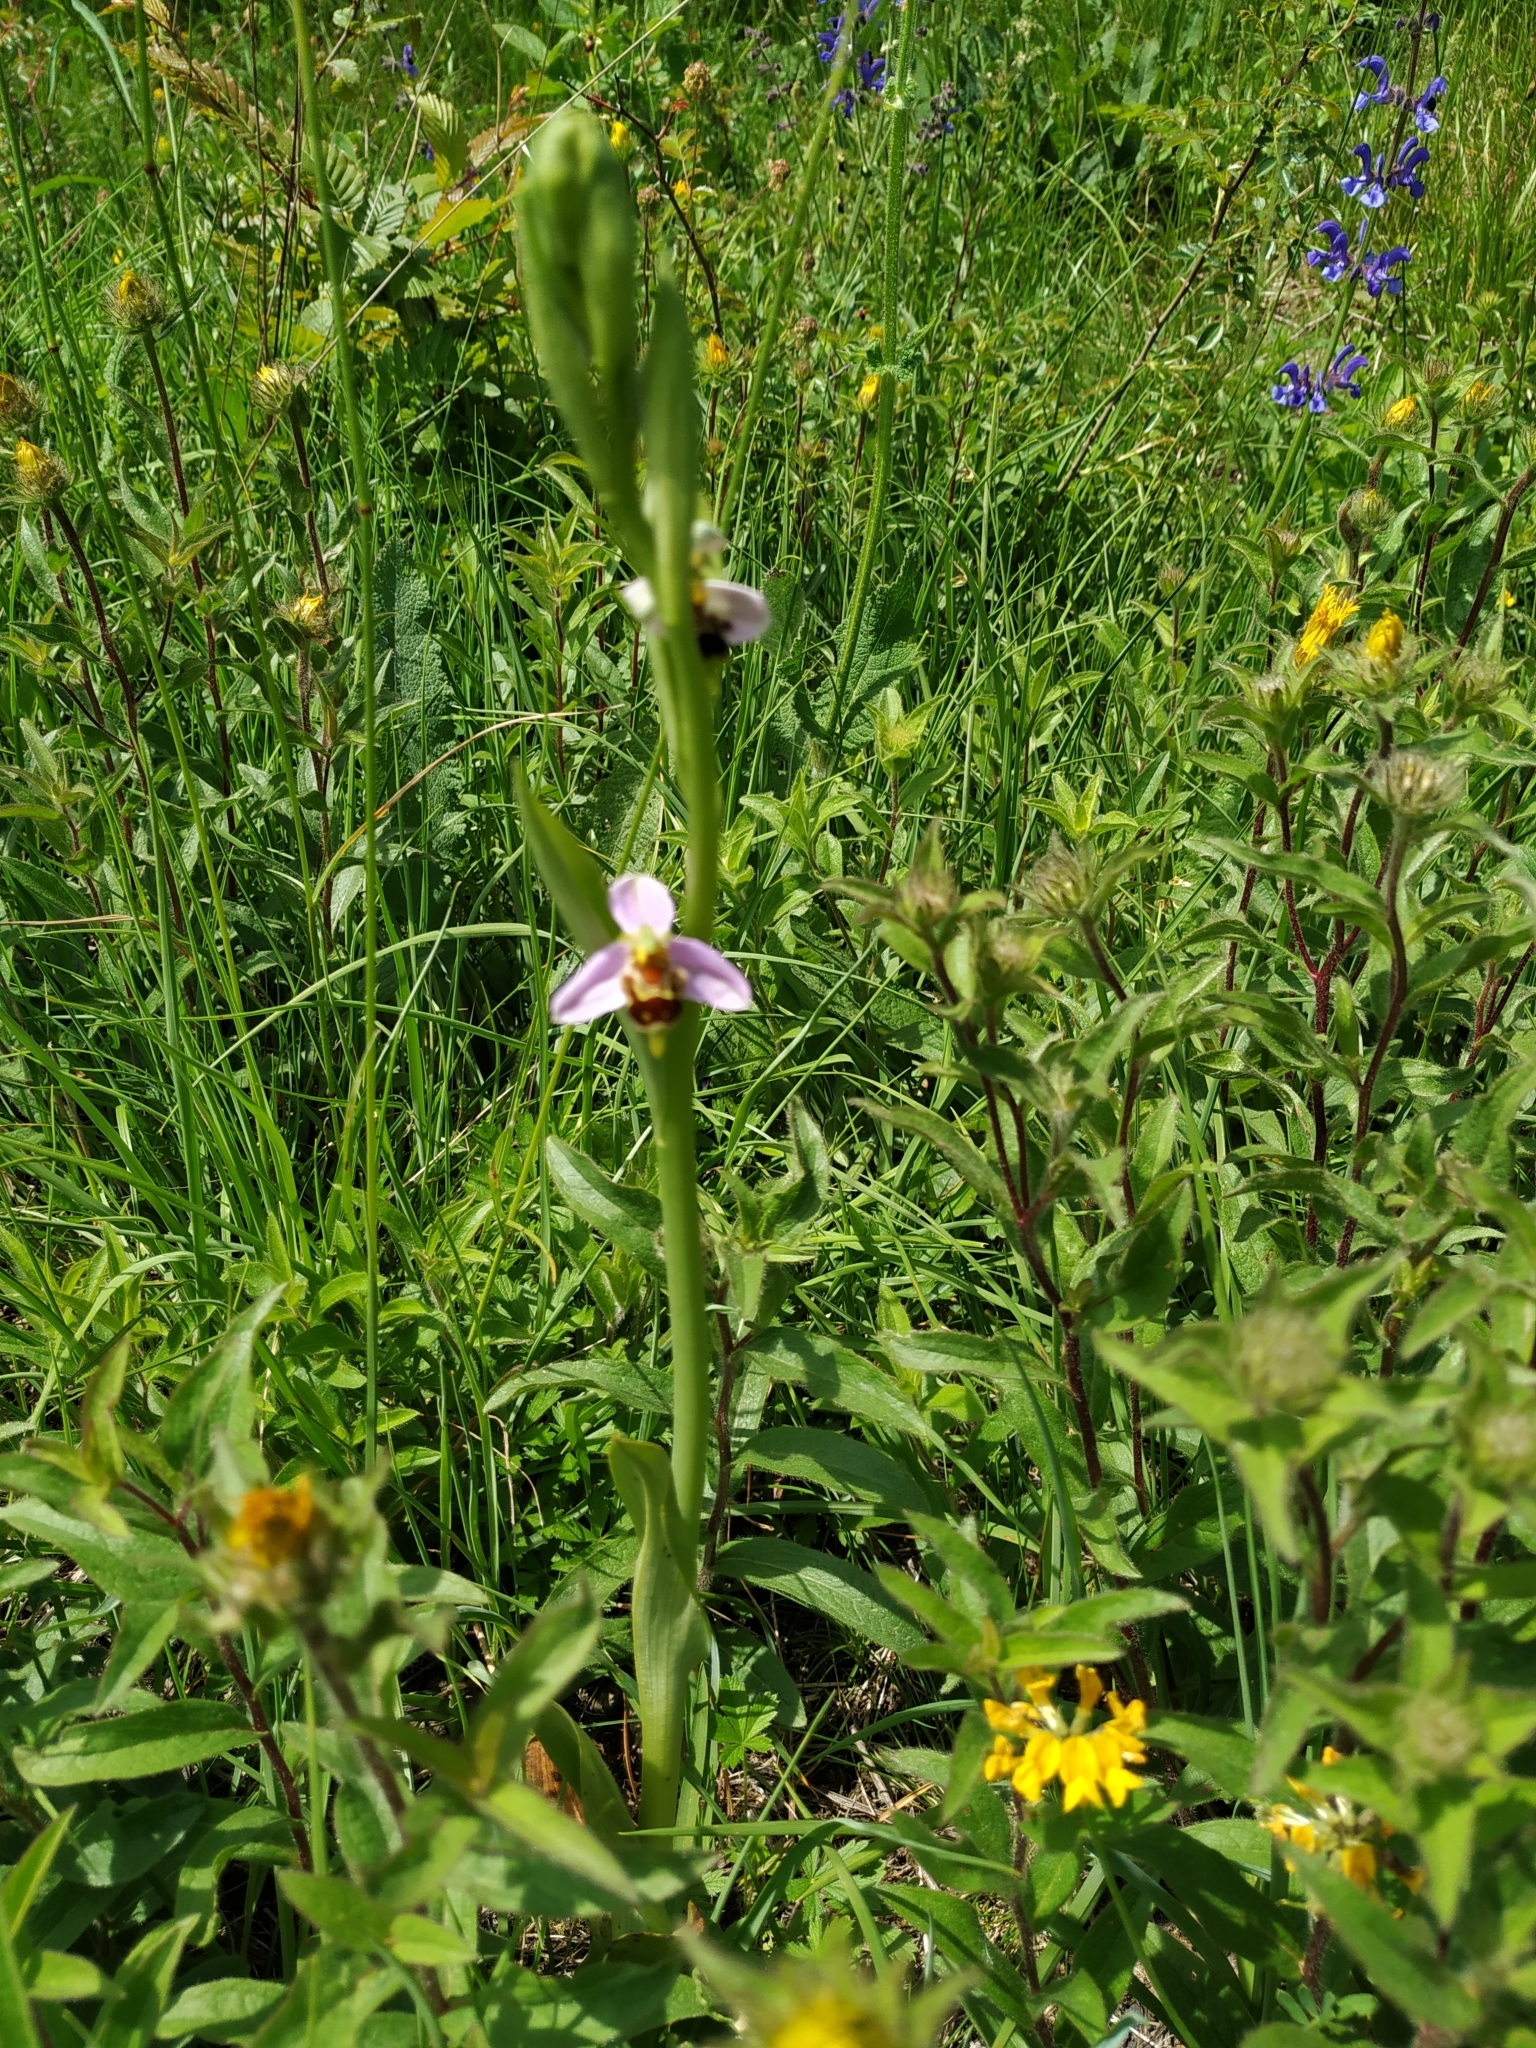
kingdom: Plantae
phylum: Tracheophyta
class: Liliopsida
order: Asparagales
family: Orchidaceae
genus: Ophrys
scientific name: Ophrys apifera
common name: Bee orchid
